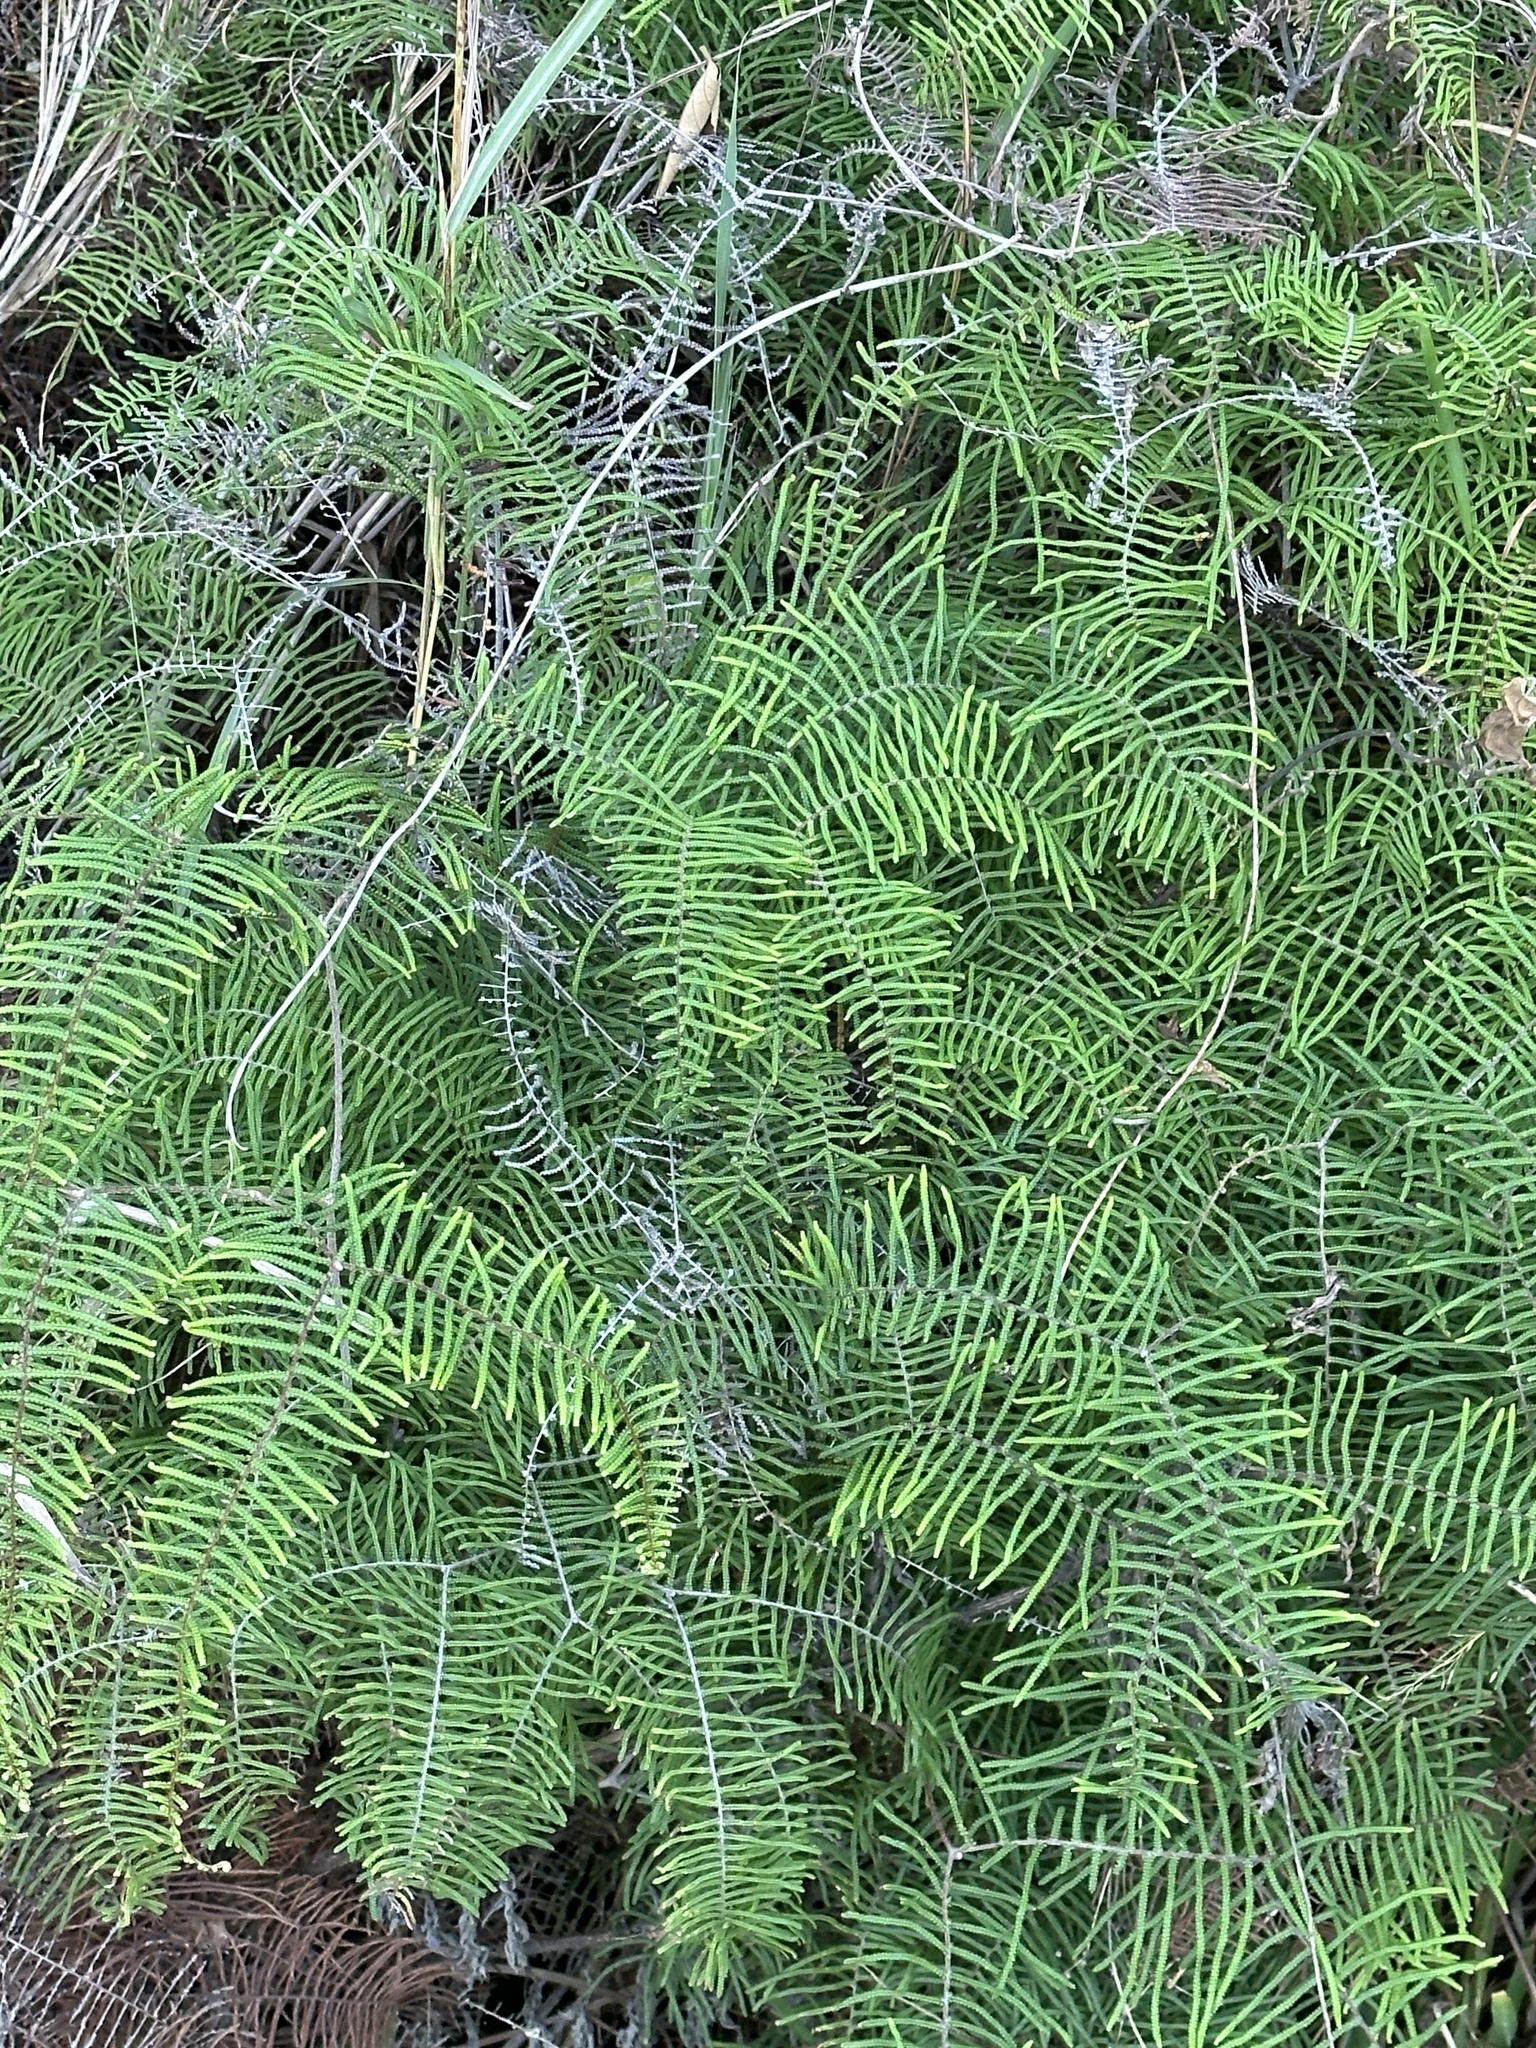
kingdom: Plantae
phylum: Tracheophyta
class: Polypodiopsida
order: Gleicheniales
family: Gleicheniaceae
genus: Gleichenia
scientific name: Gleichenia dicarpa
